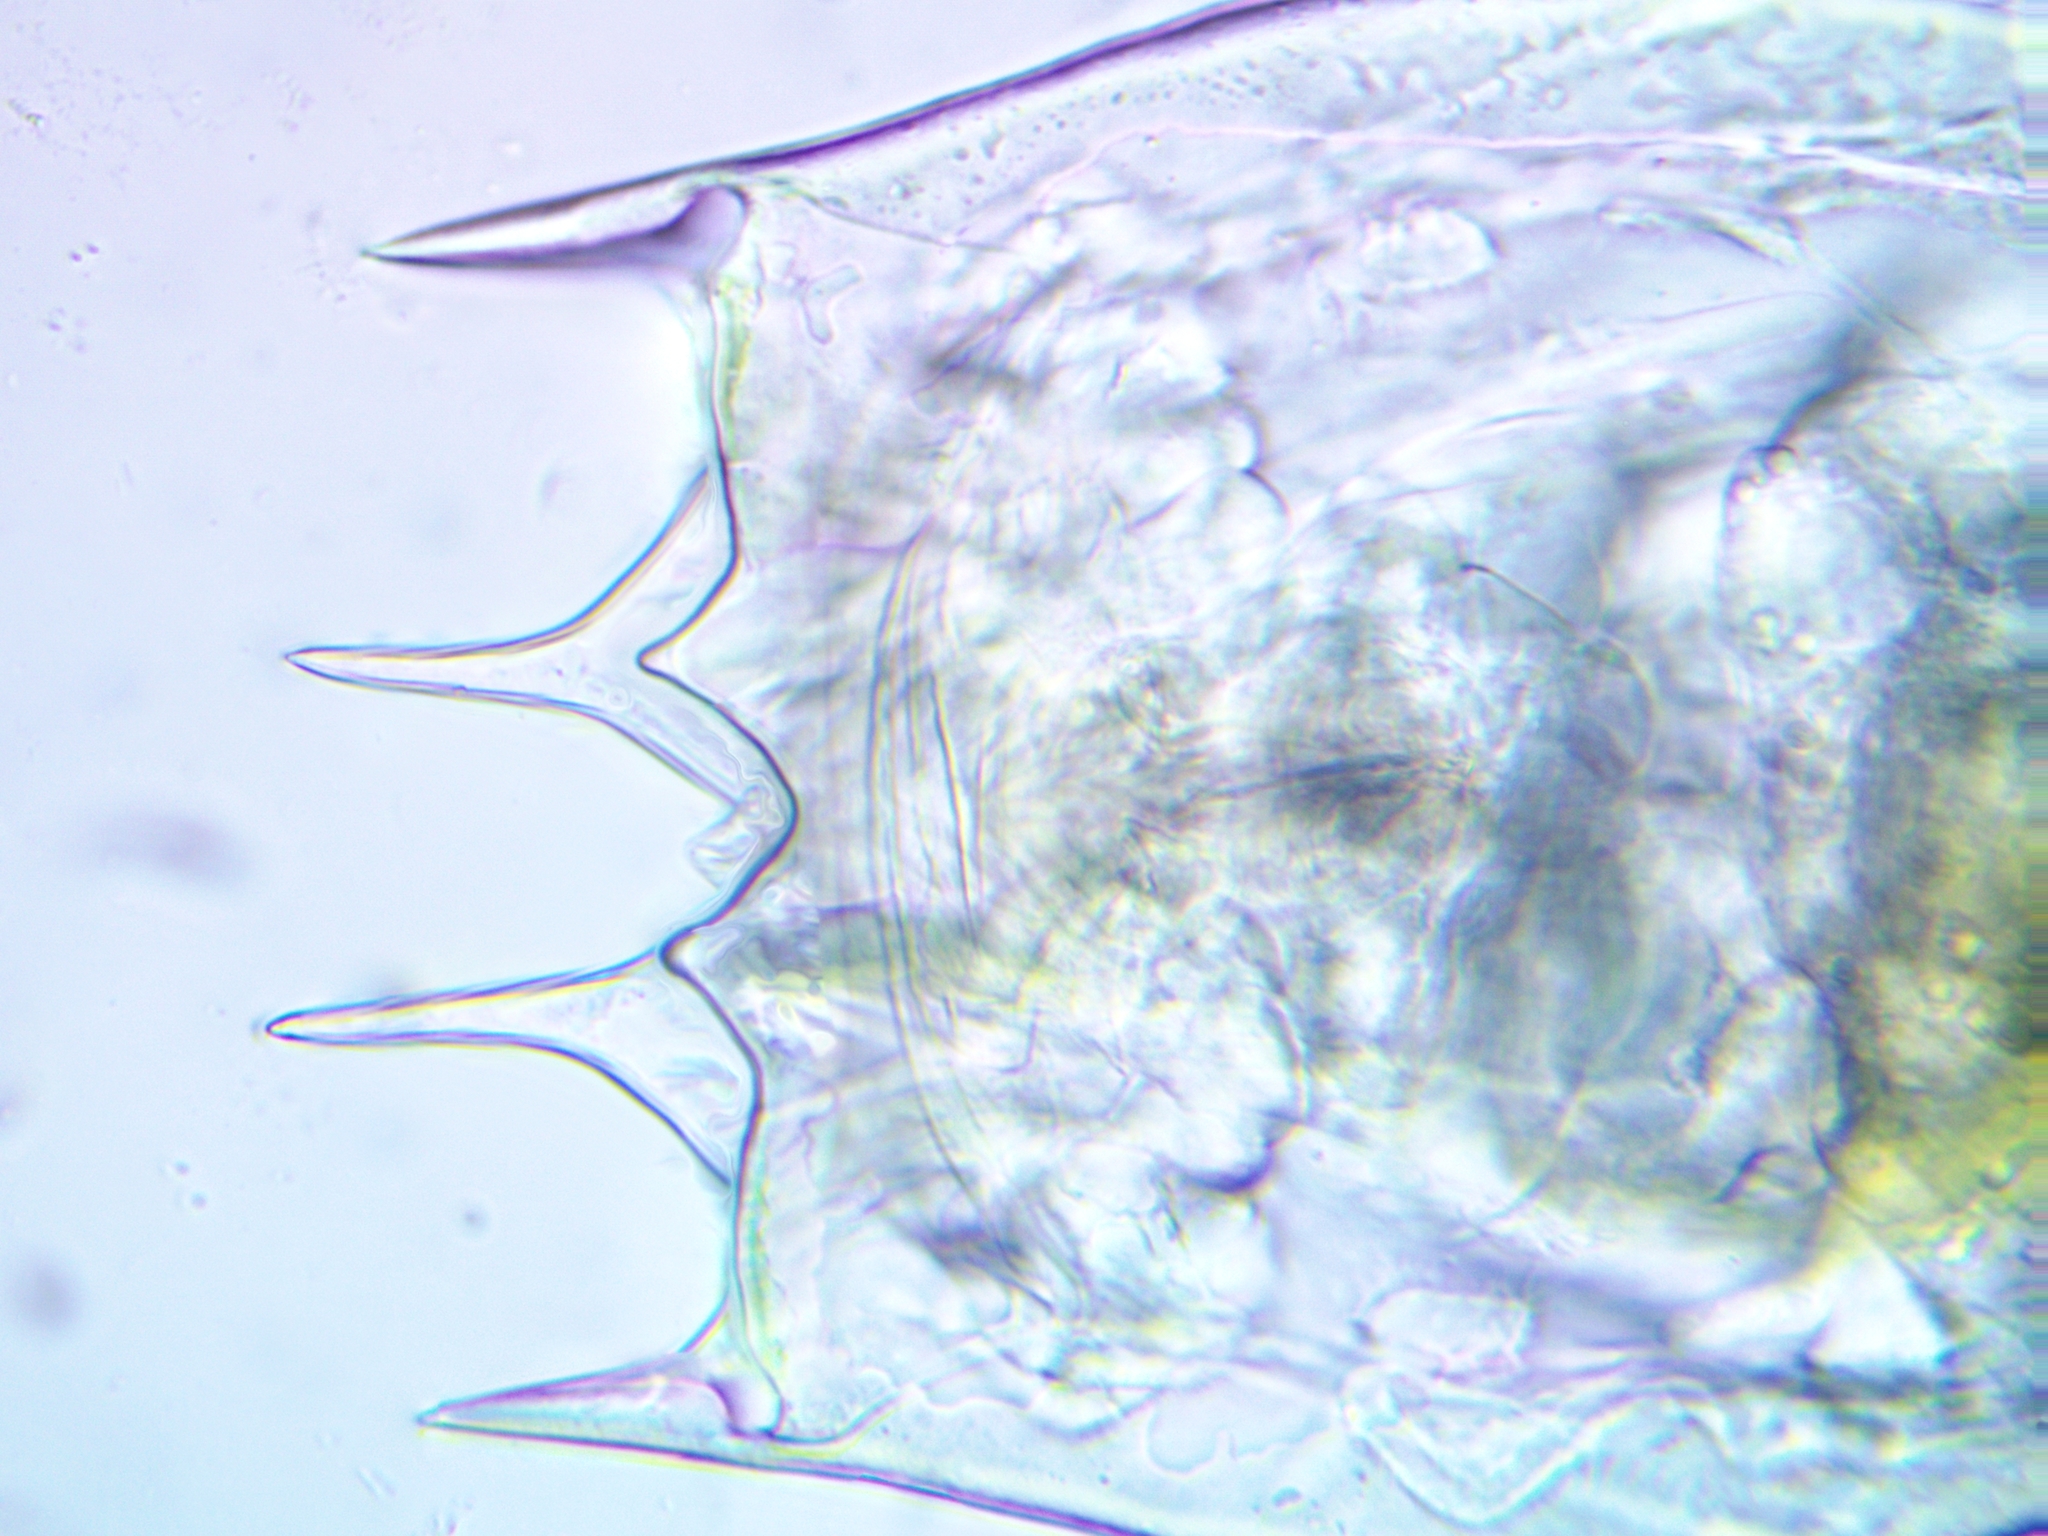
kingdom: Animalia
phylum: Rotifera
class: Eurotatoria
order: Ploima
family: Brachionidae
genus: Brachionus
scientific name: Brachionus calyciflorus
